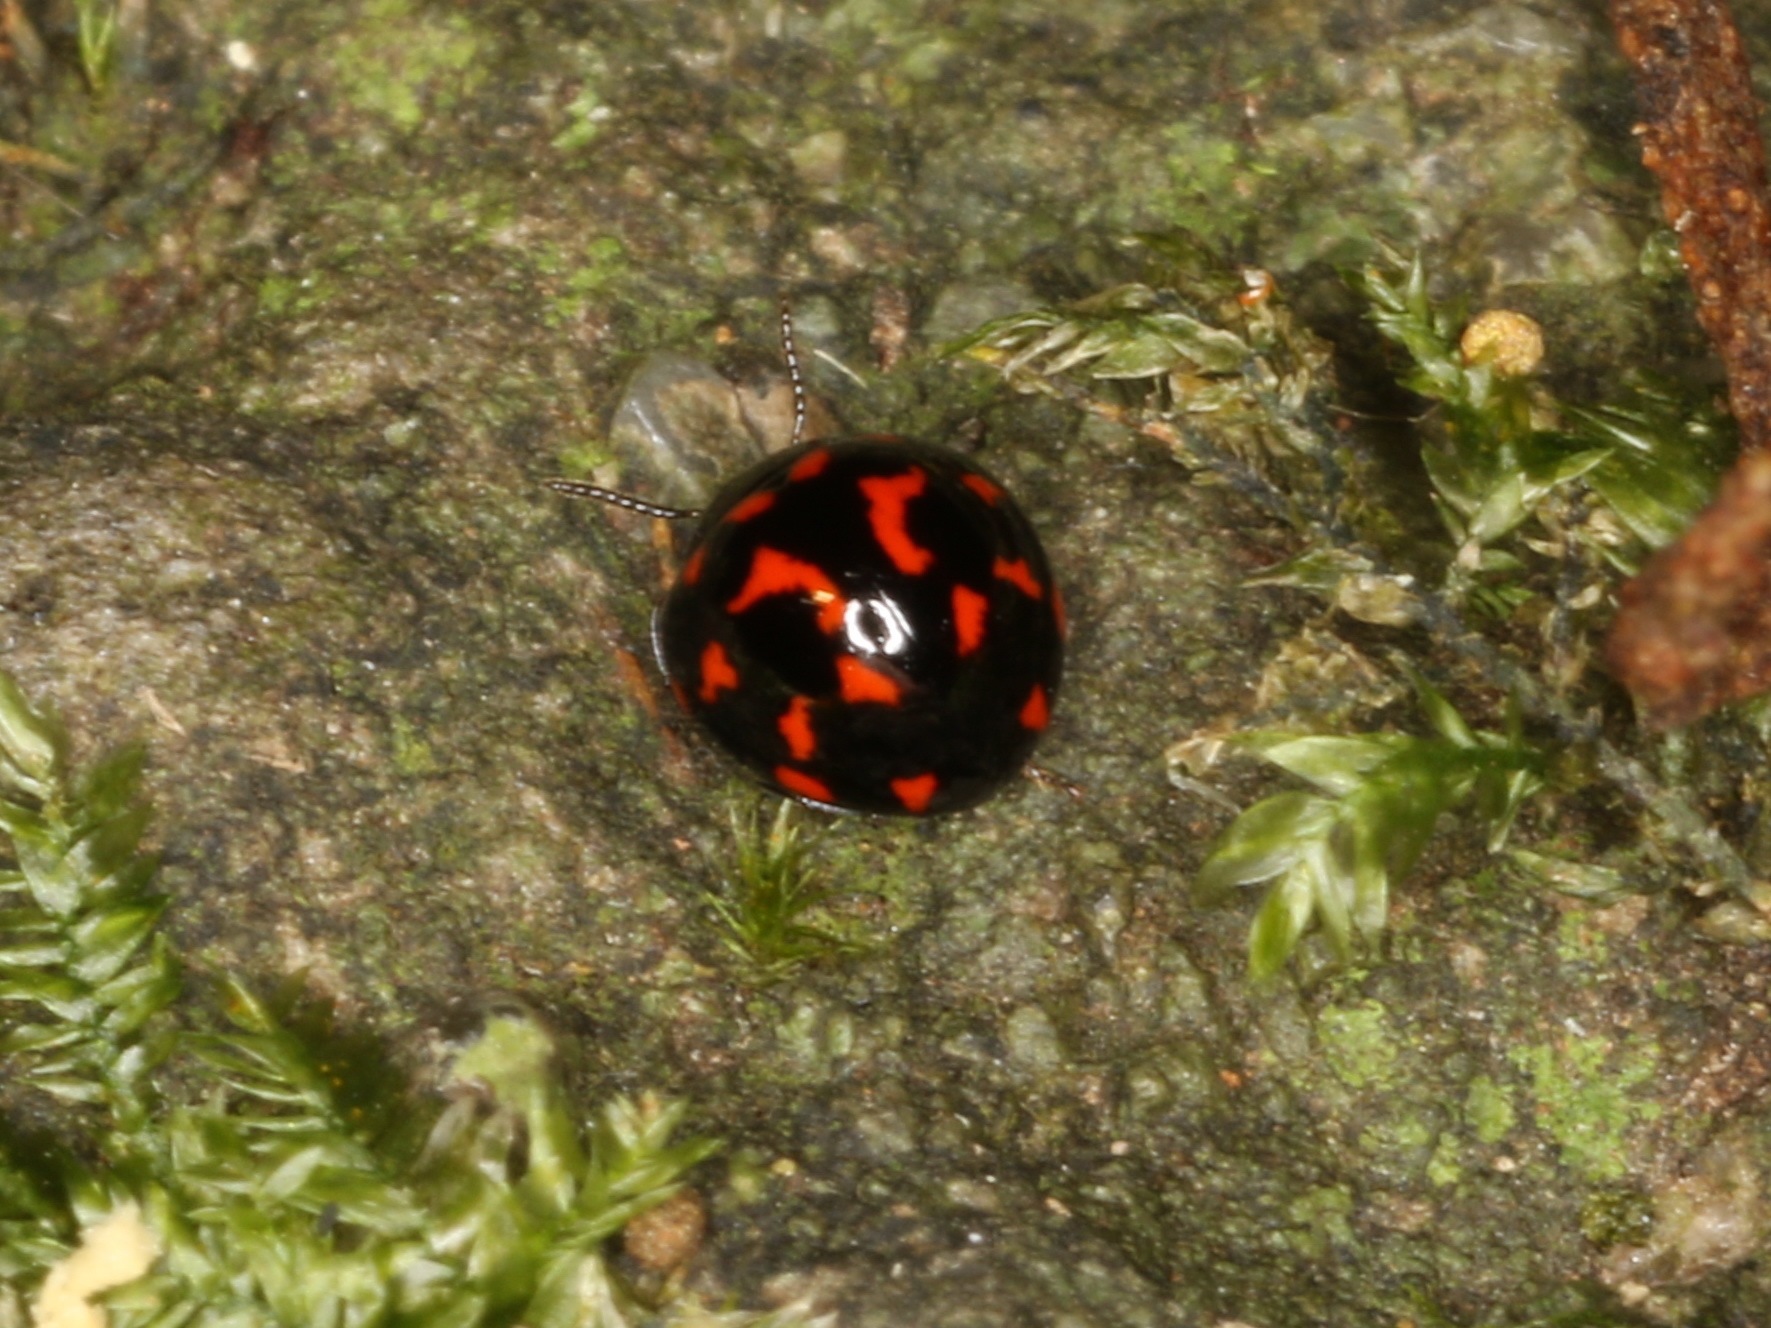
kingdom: Animalia
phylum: Arthropoda
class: Insecta
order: Coleoptera
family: Tenebrionidae
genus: Derispia
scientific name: Derispia
